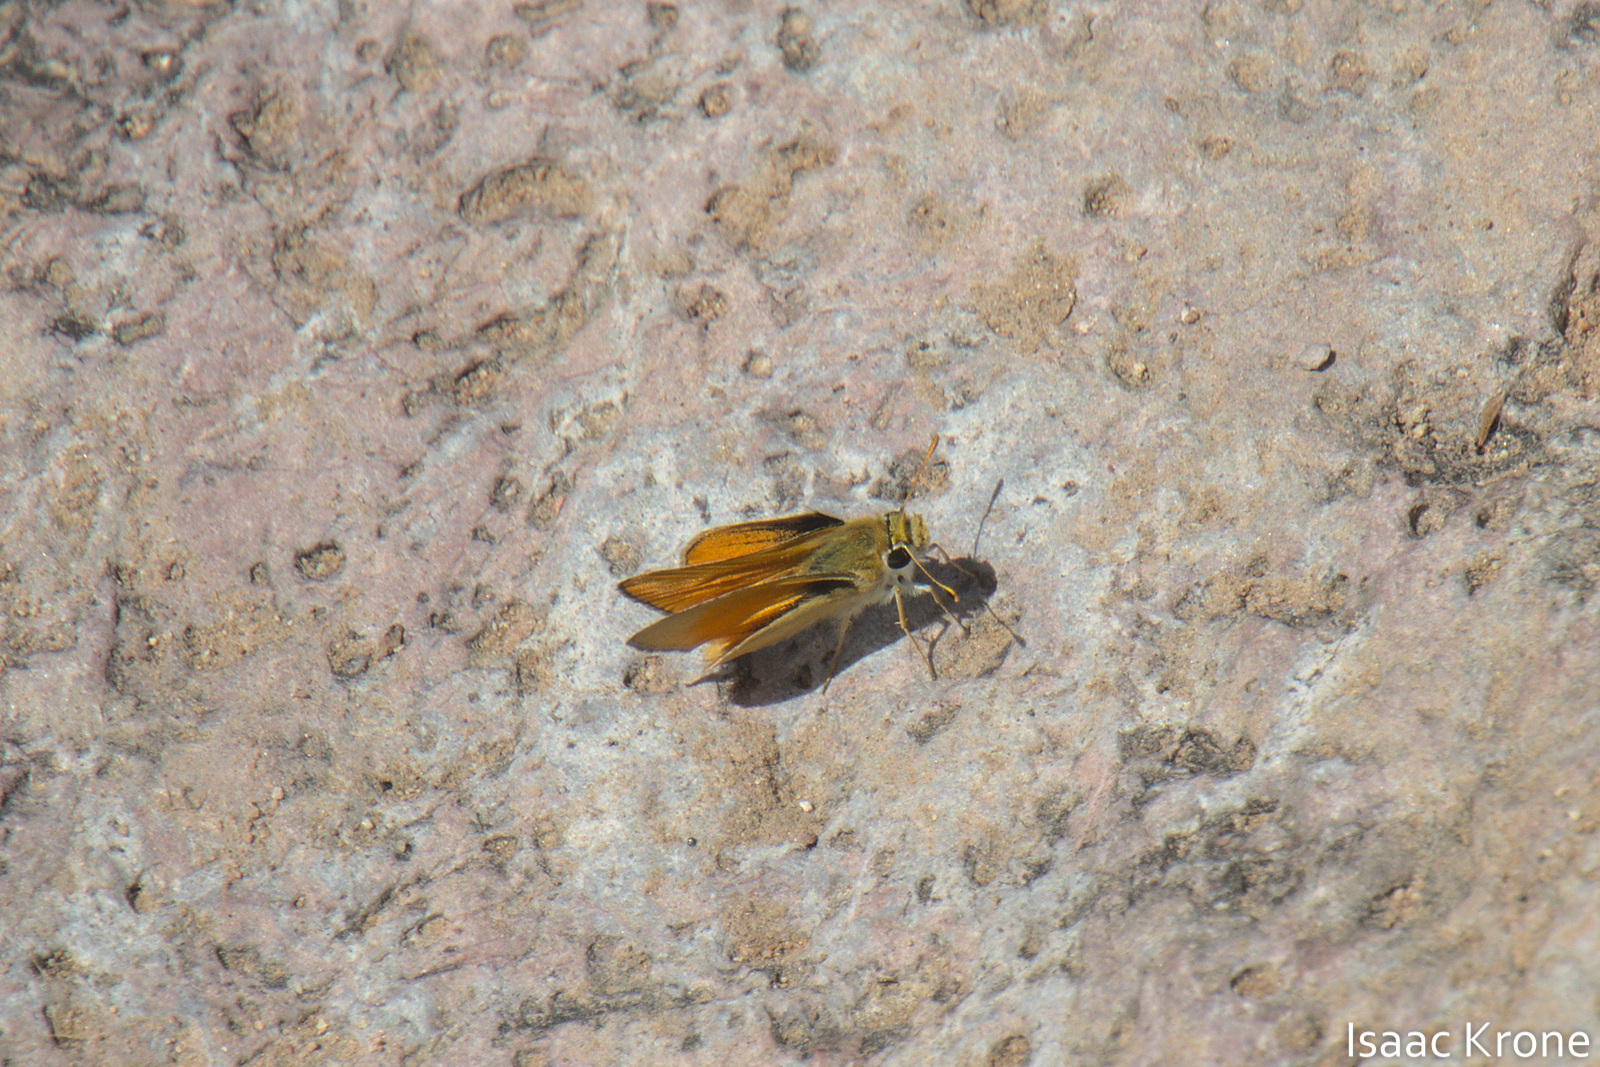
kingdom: Animalia
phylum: Arthropoda
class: Insecta
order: Lepidoptera
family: Hesperiidae
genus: Copaeodes
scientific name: Copaeodes aurantiaca
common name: Orange skipperling
